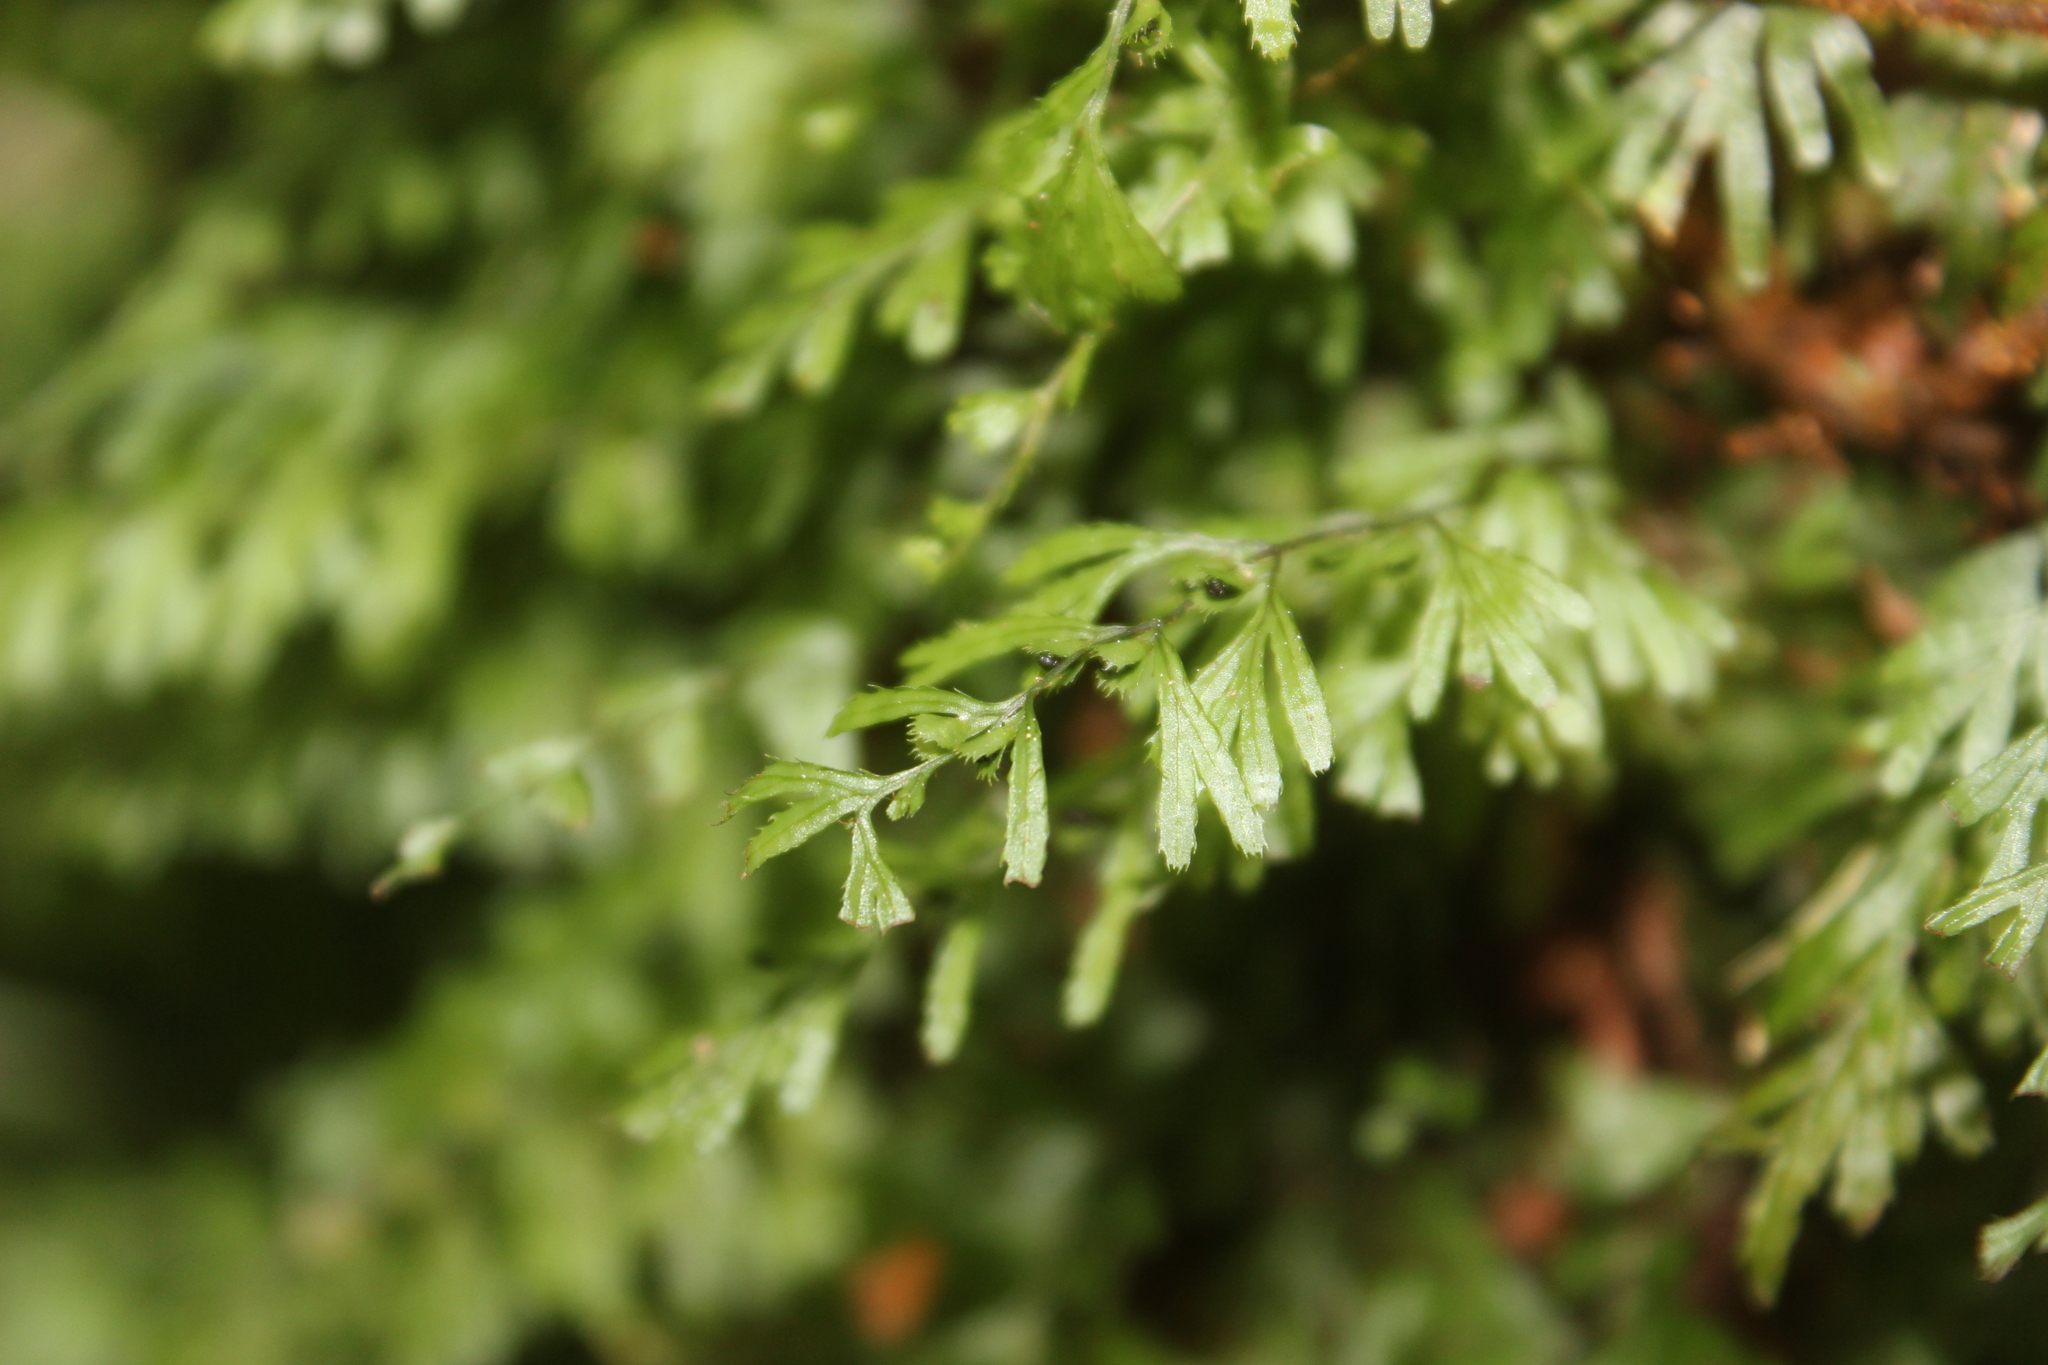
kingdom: Plantae
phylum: Tracheophyta
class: Polypodiopsida
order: Hymenophyllales
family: Hymenophyllaceae
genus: Hymenophyllum
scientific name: Hymenophyllum multifidum
